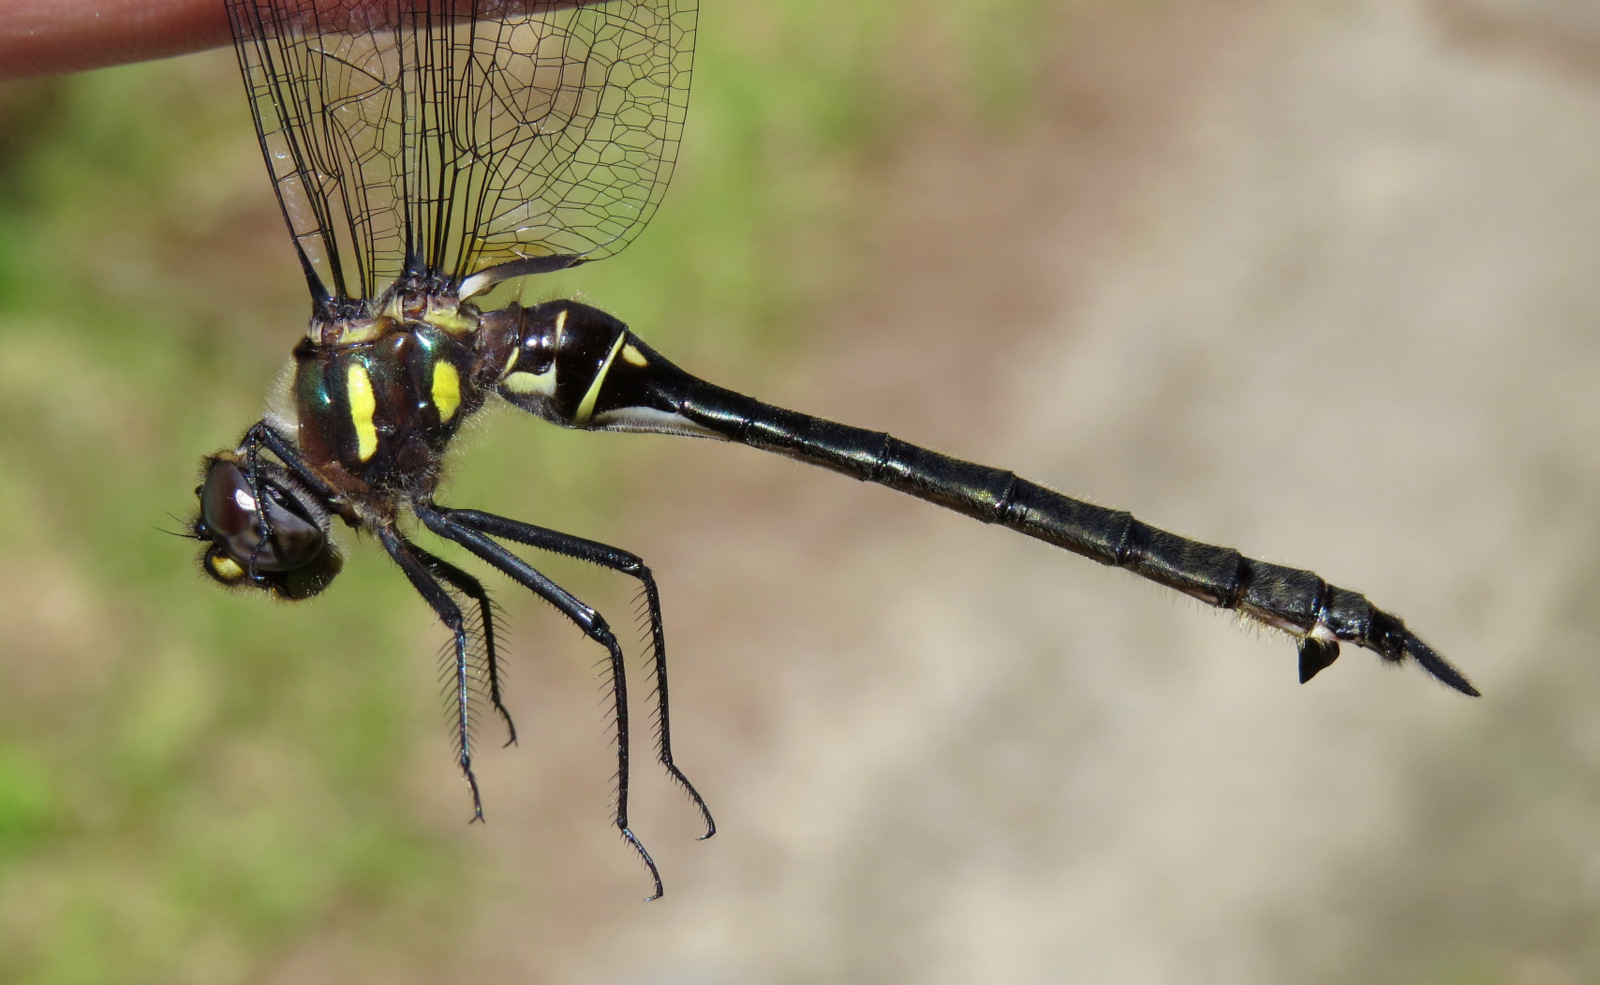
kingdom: Animalia
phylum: Arthropoda
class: Insecta
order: Odonata
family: Corduliidae
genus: Somatochlora
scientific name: Somatochlora elongata
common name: Ski-tipped emerald
